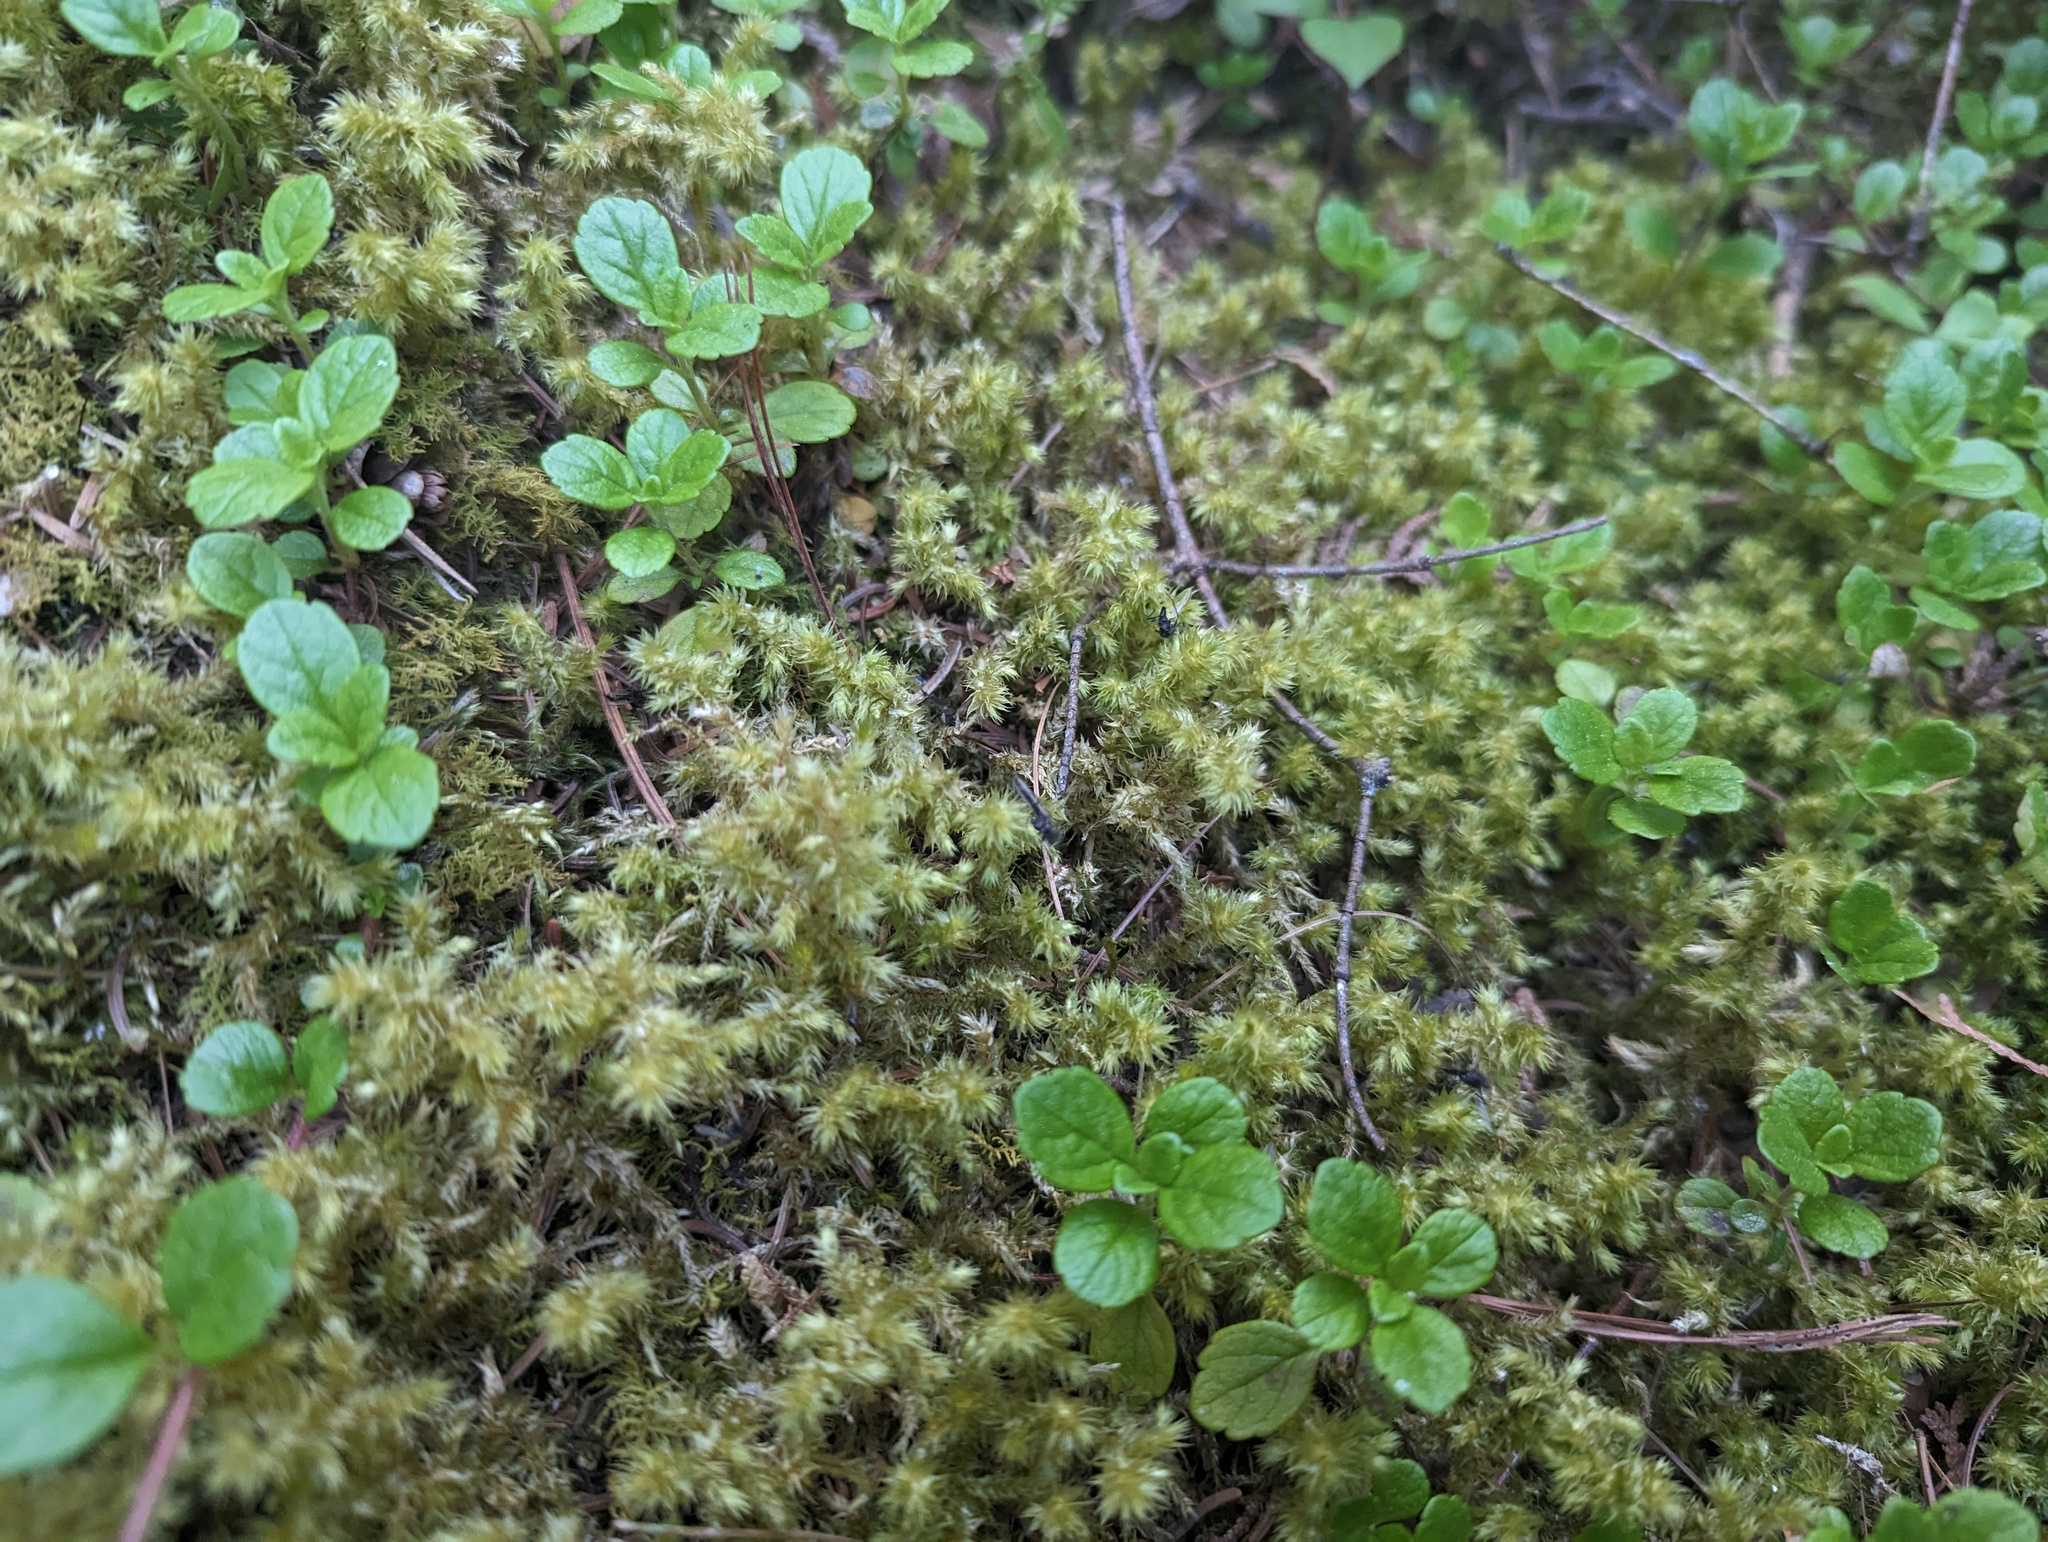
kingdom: Plantae
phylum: Bryophyta
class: Bryopsida
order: Hypnales
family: Hylocomiaceae
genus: Hylocomiadelphus
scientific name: Hylocomiadelphus triquetrus
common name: Rough goose neck moss
